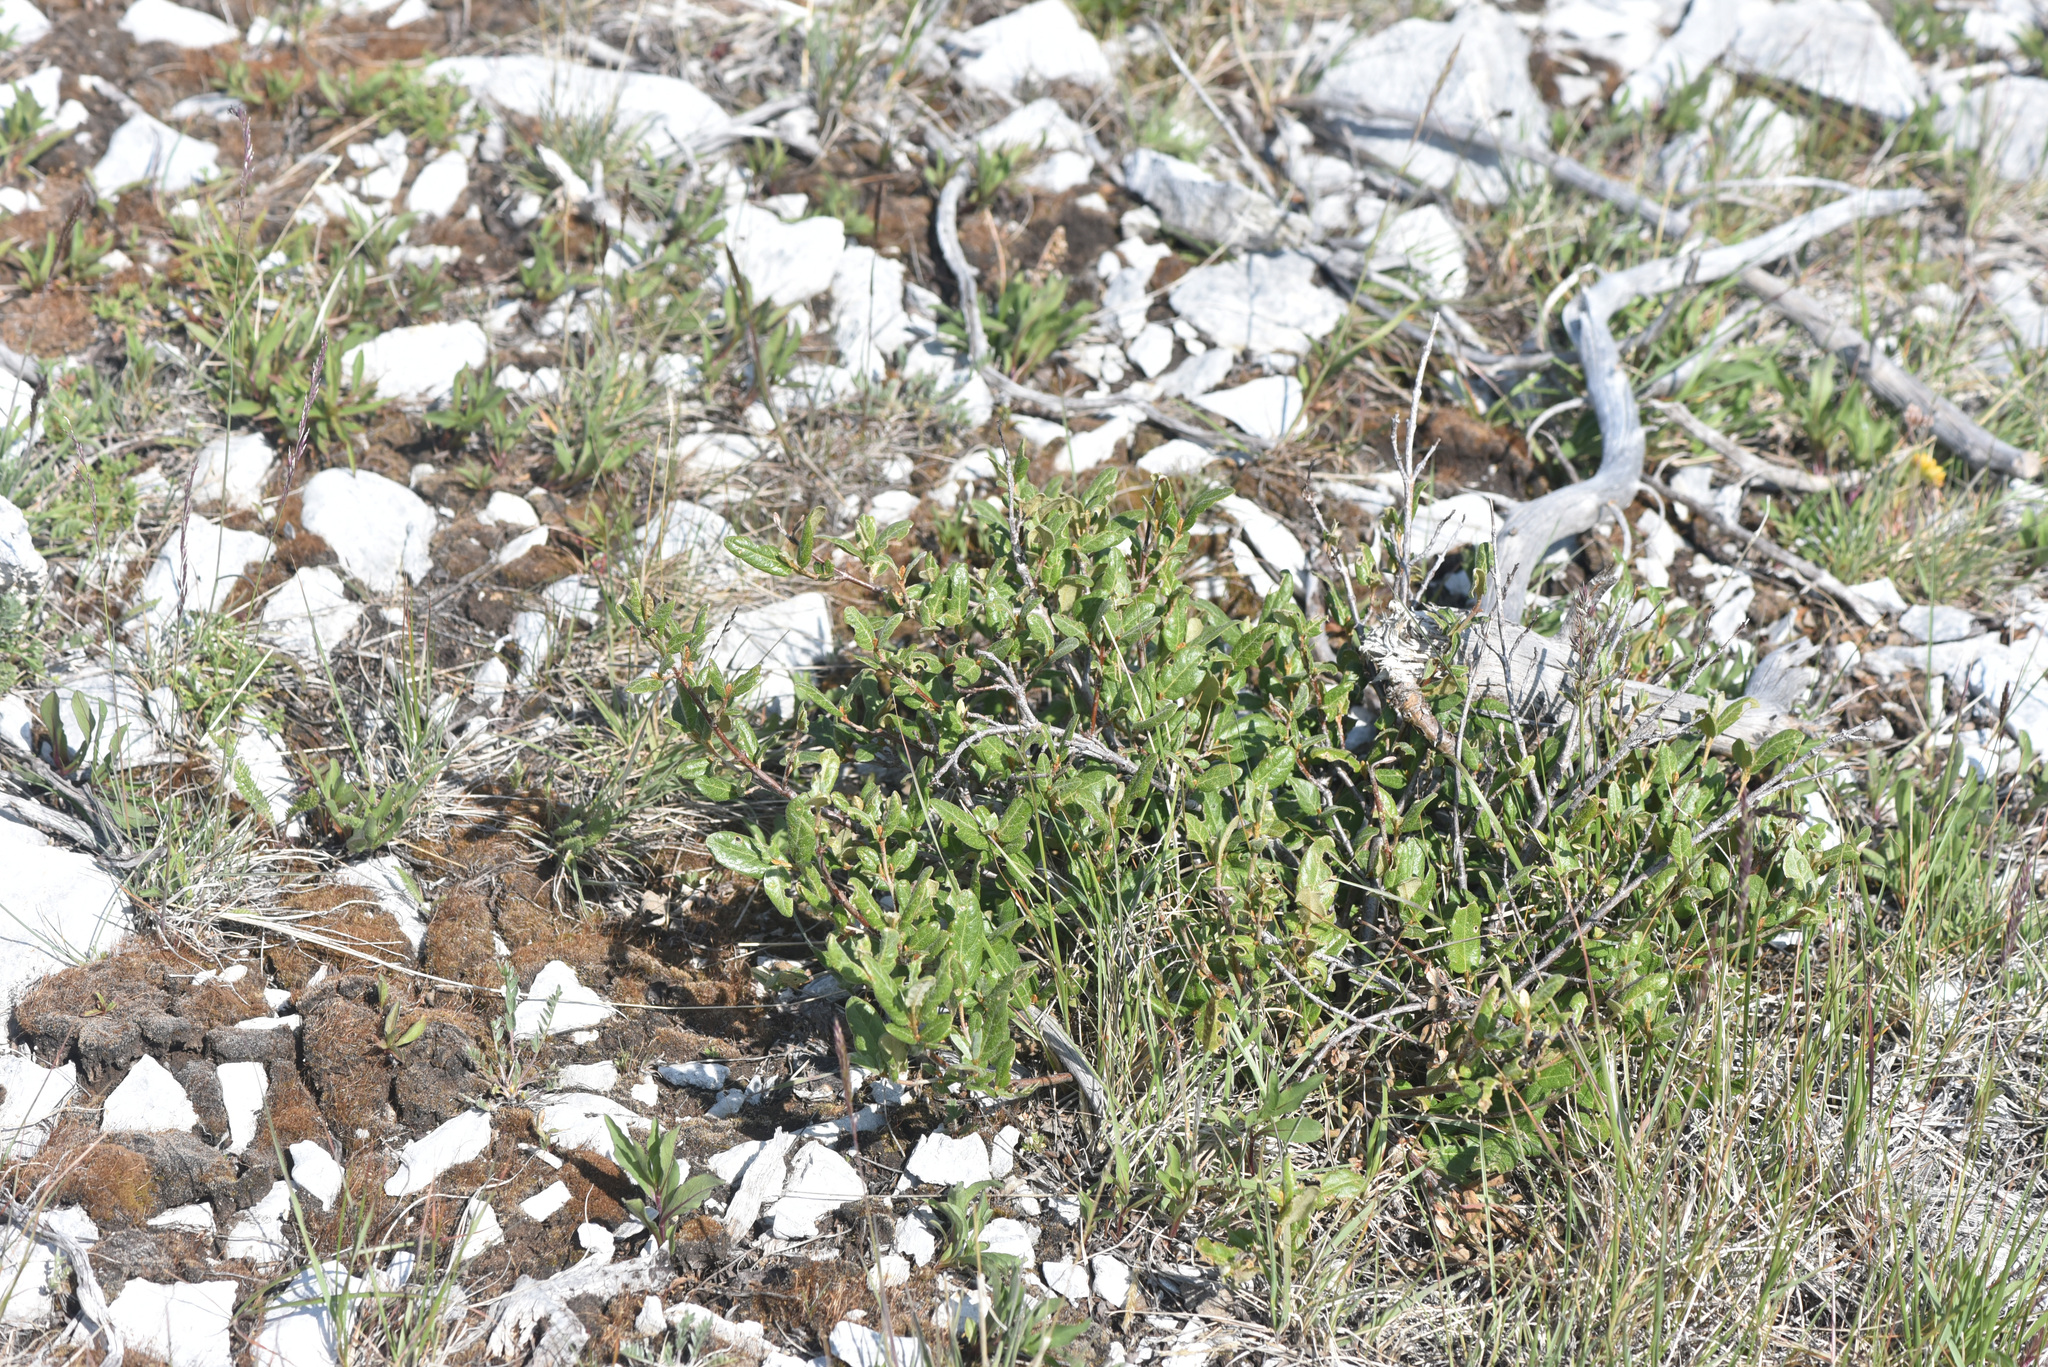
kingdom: Plantae
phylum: Tracheophyta
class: Magnoliopsida
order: Rosales
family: Elaeagnaceae
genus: Shepherdia
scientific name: Shepherdia canadensis
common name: Soapberry
